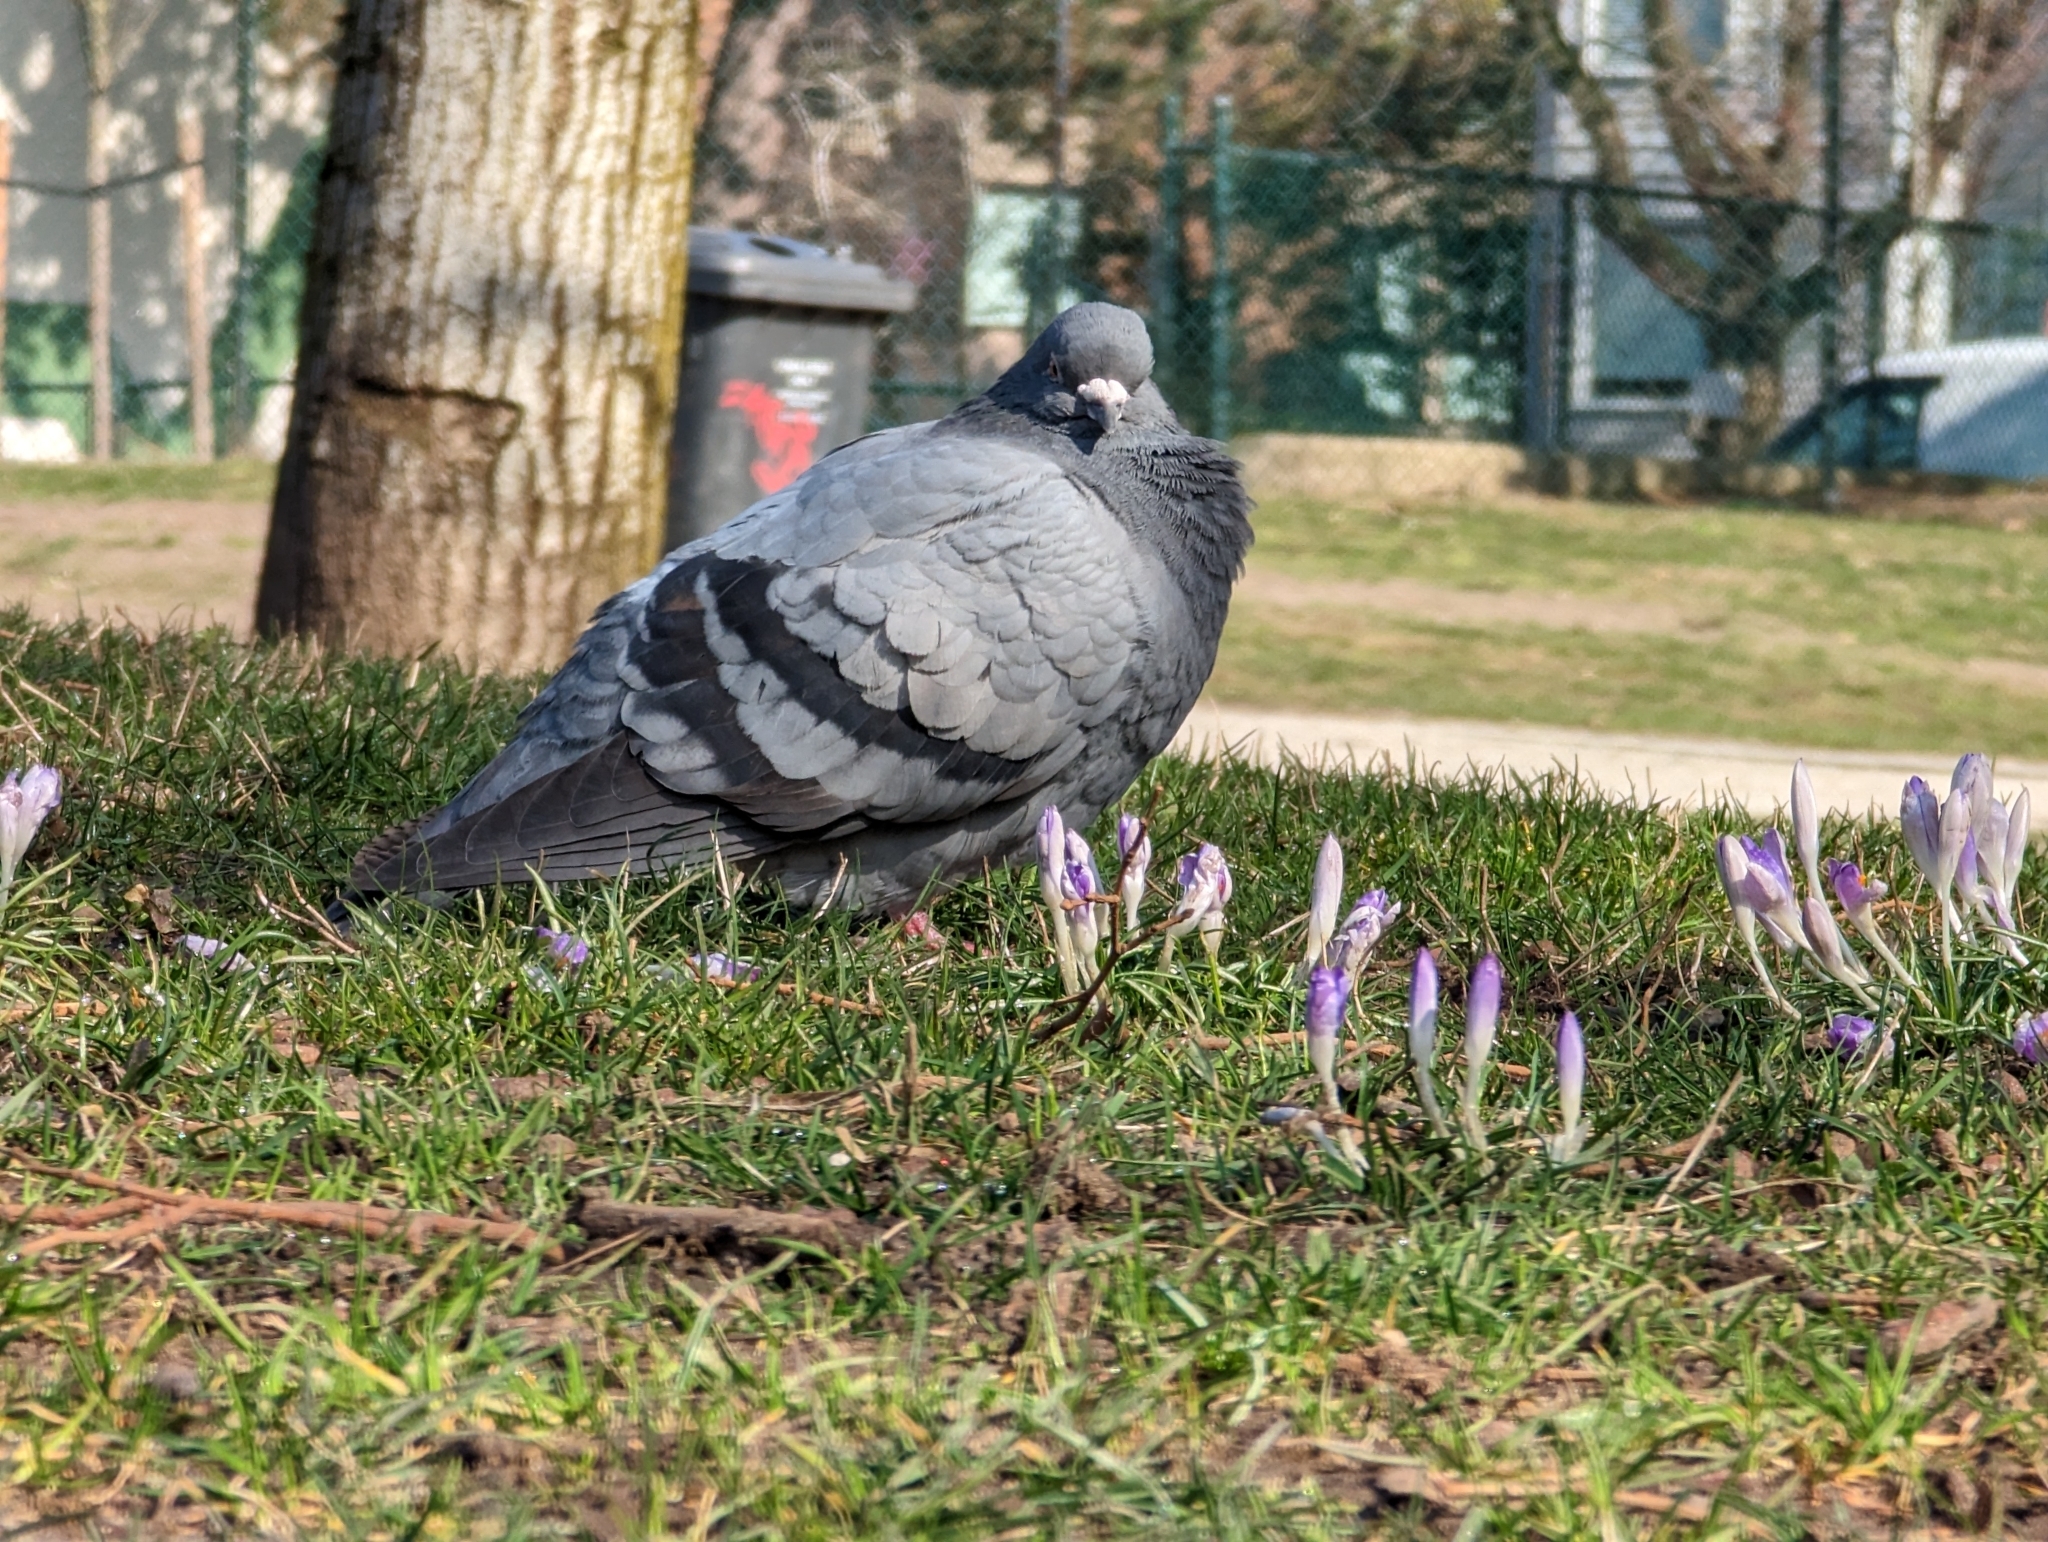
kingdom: Animalia
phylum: Chordata
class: Aves
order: Columbiformes
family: Columbidae
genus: Columba
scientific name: Columba livia
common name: Rock pigeon
